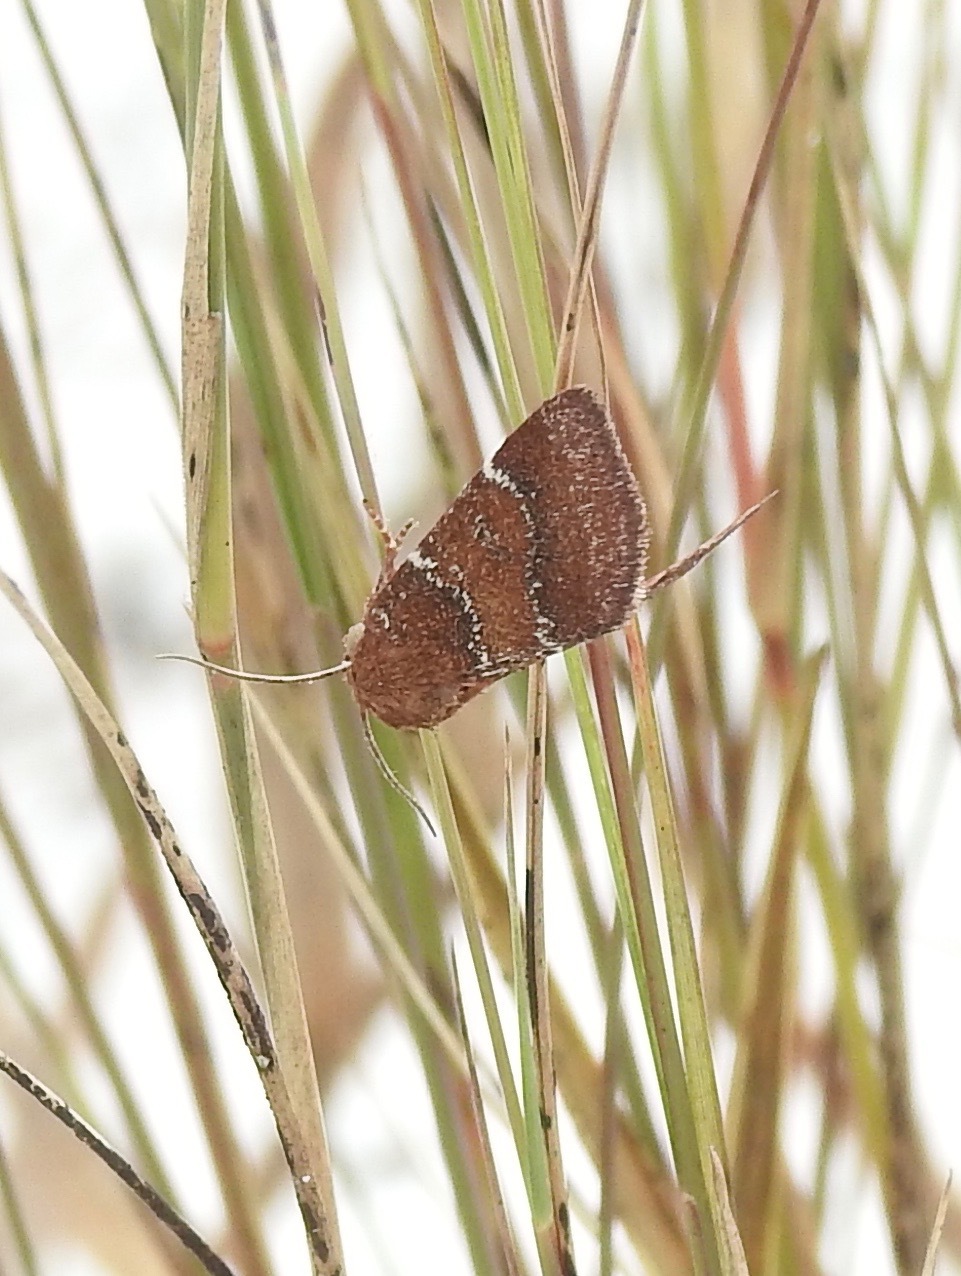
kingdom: Animalia
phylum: Arthropoda
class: Insecta
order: Lepidoptera
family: Noctuidae
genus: Schinia
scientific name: Schinia saturata
